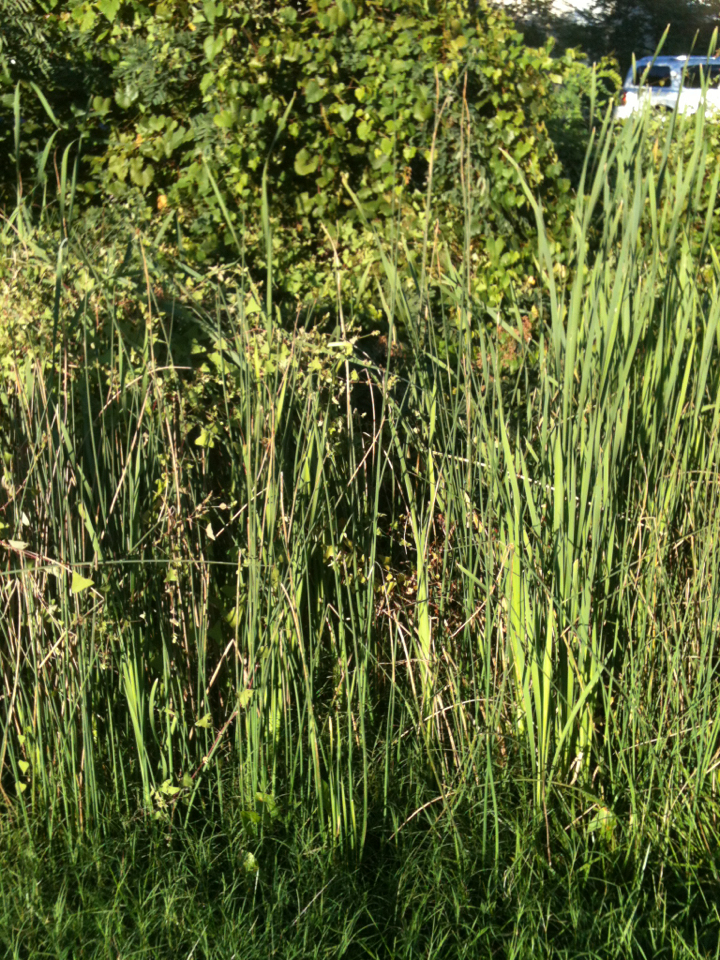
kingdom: Plantae
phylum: Tracheophyta
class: Liliopsida
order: Poales
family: Cyperaceae
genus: Schoenoplectus
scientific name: Schoenoplectus tabernaemontani
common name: Grey club-rush
